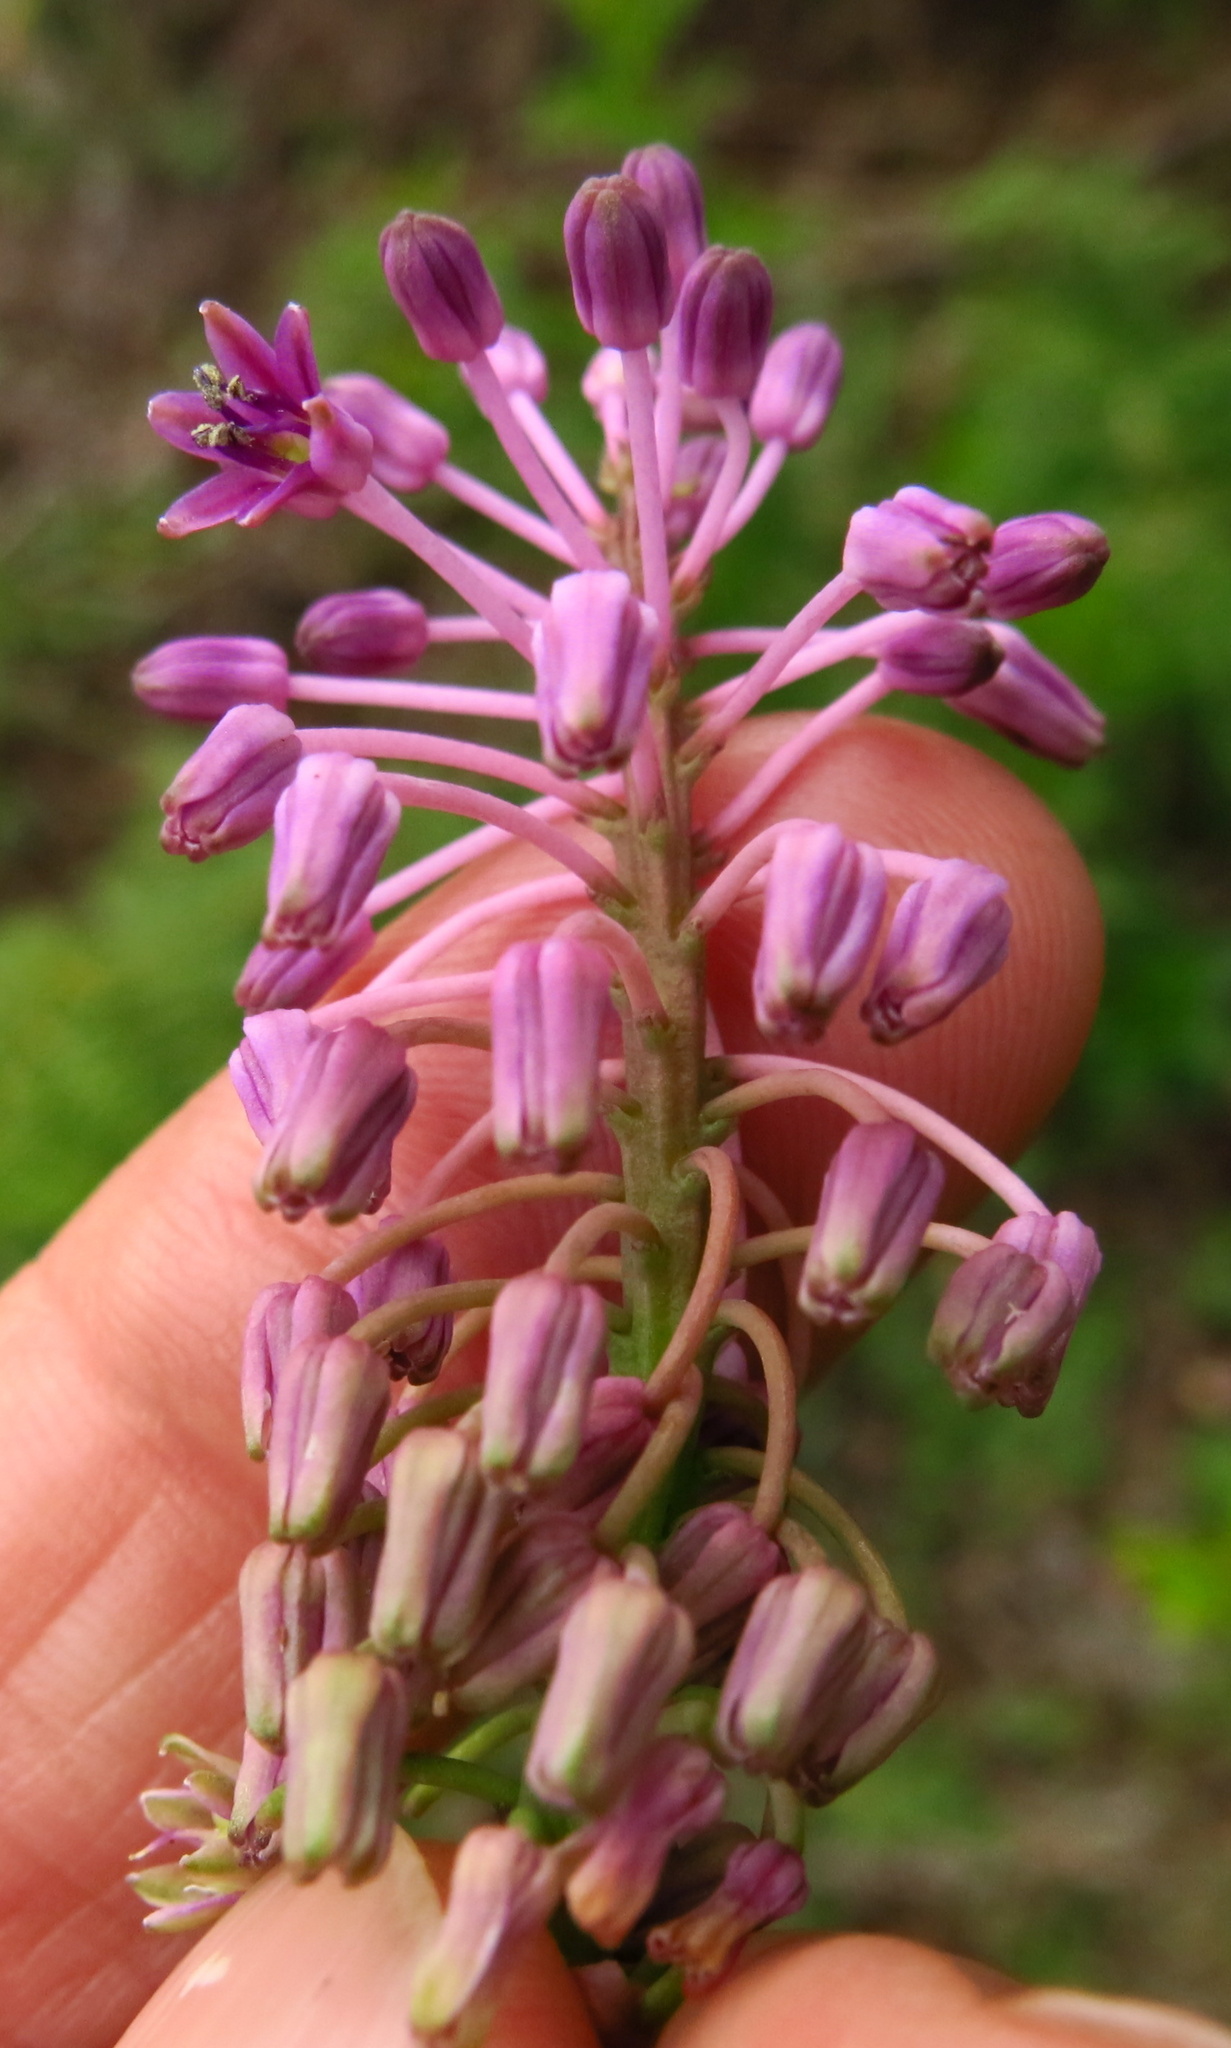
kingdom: Plantae
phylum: Tracheophyta
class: Liliopsida
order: Asparagales
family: Asparagaceae
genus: Ledebouria
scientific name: Ledebouria sandersonii
